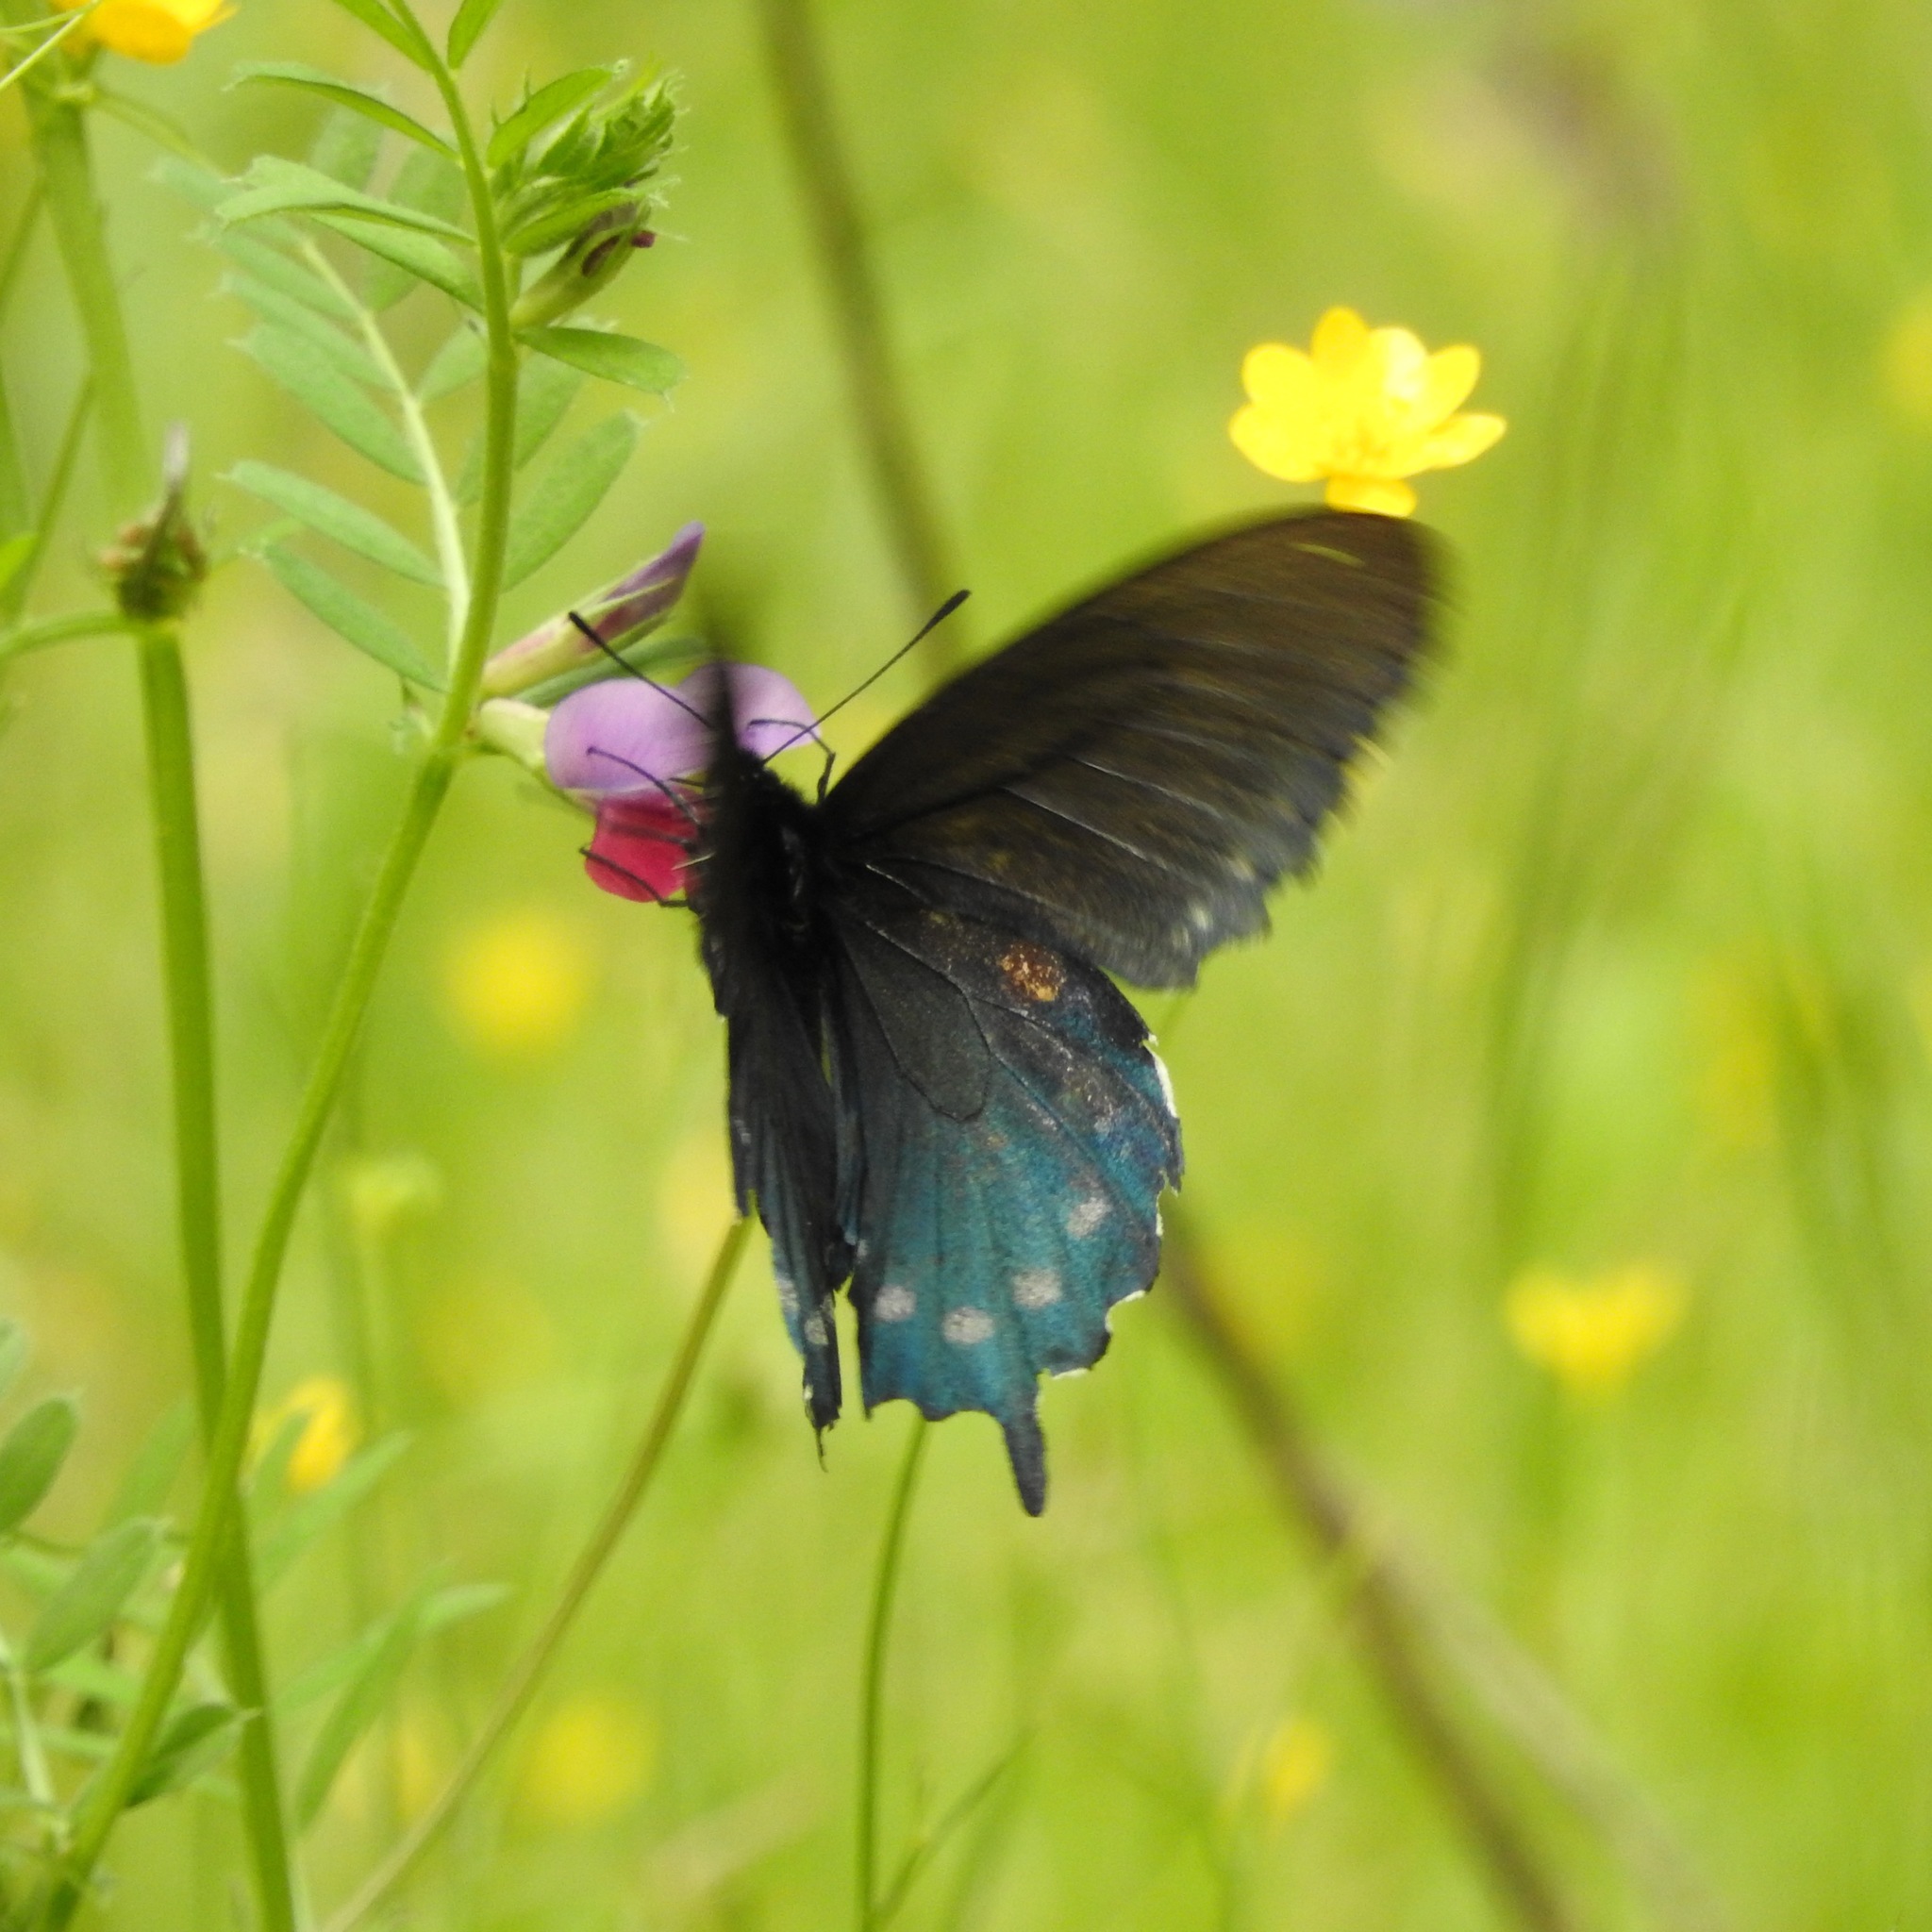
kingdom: Plantae
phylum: Tracheophyta
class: Magnoliopsida
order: Fabales
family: Fabaceae
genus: Vicia
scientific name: Vicia sativa
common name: Garden vetch
